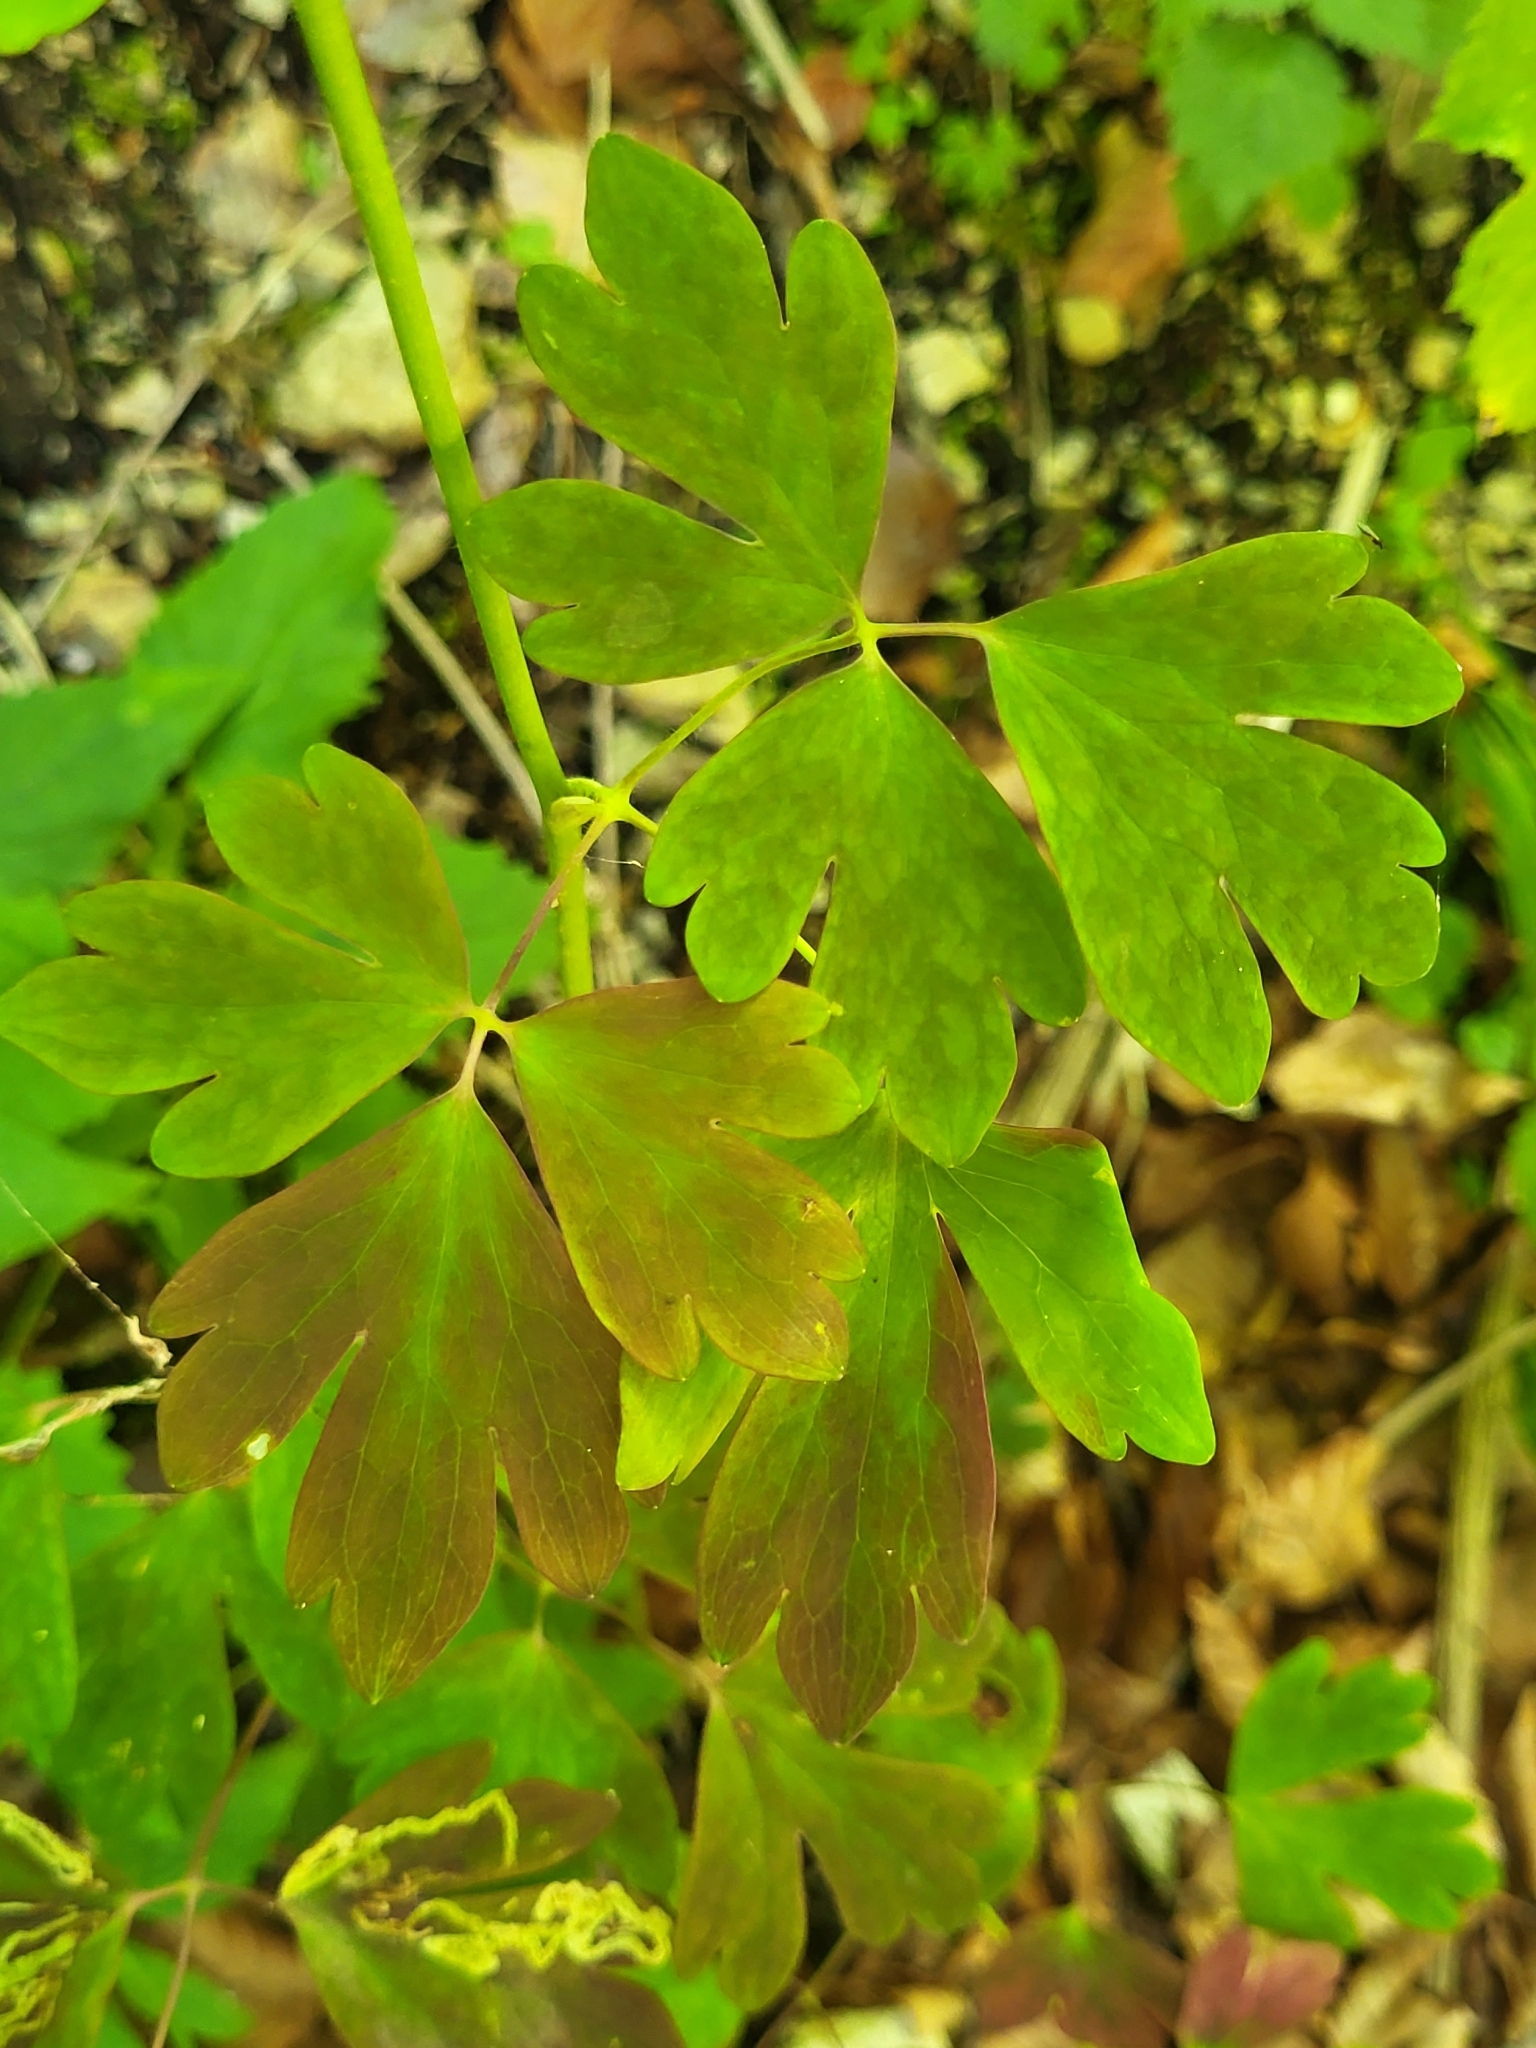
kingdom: Plantae
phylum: Tracheophyta
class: Magnoliopsida
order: Ranunculales
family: Ranunculaceae
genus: Aquilegia
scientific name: Aquilegia atrata
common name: Dark columbine
